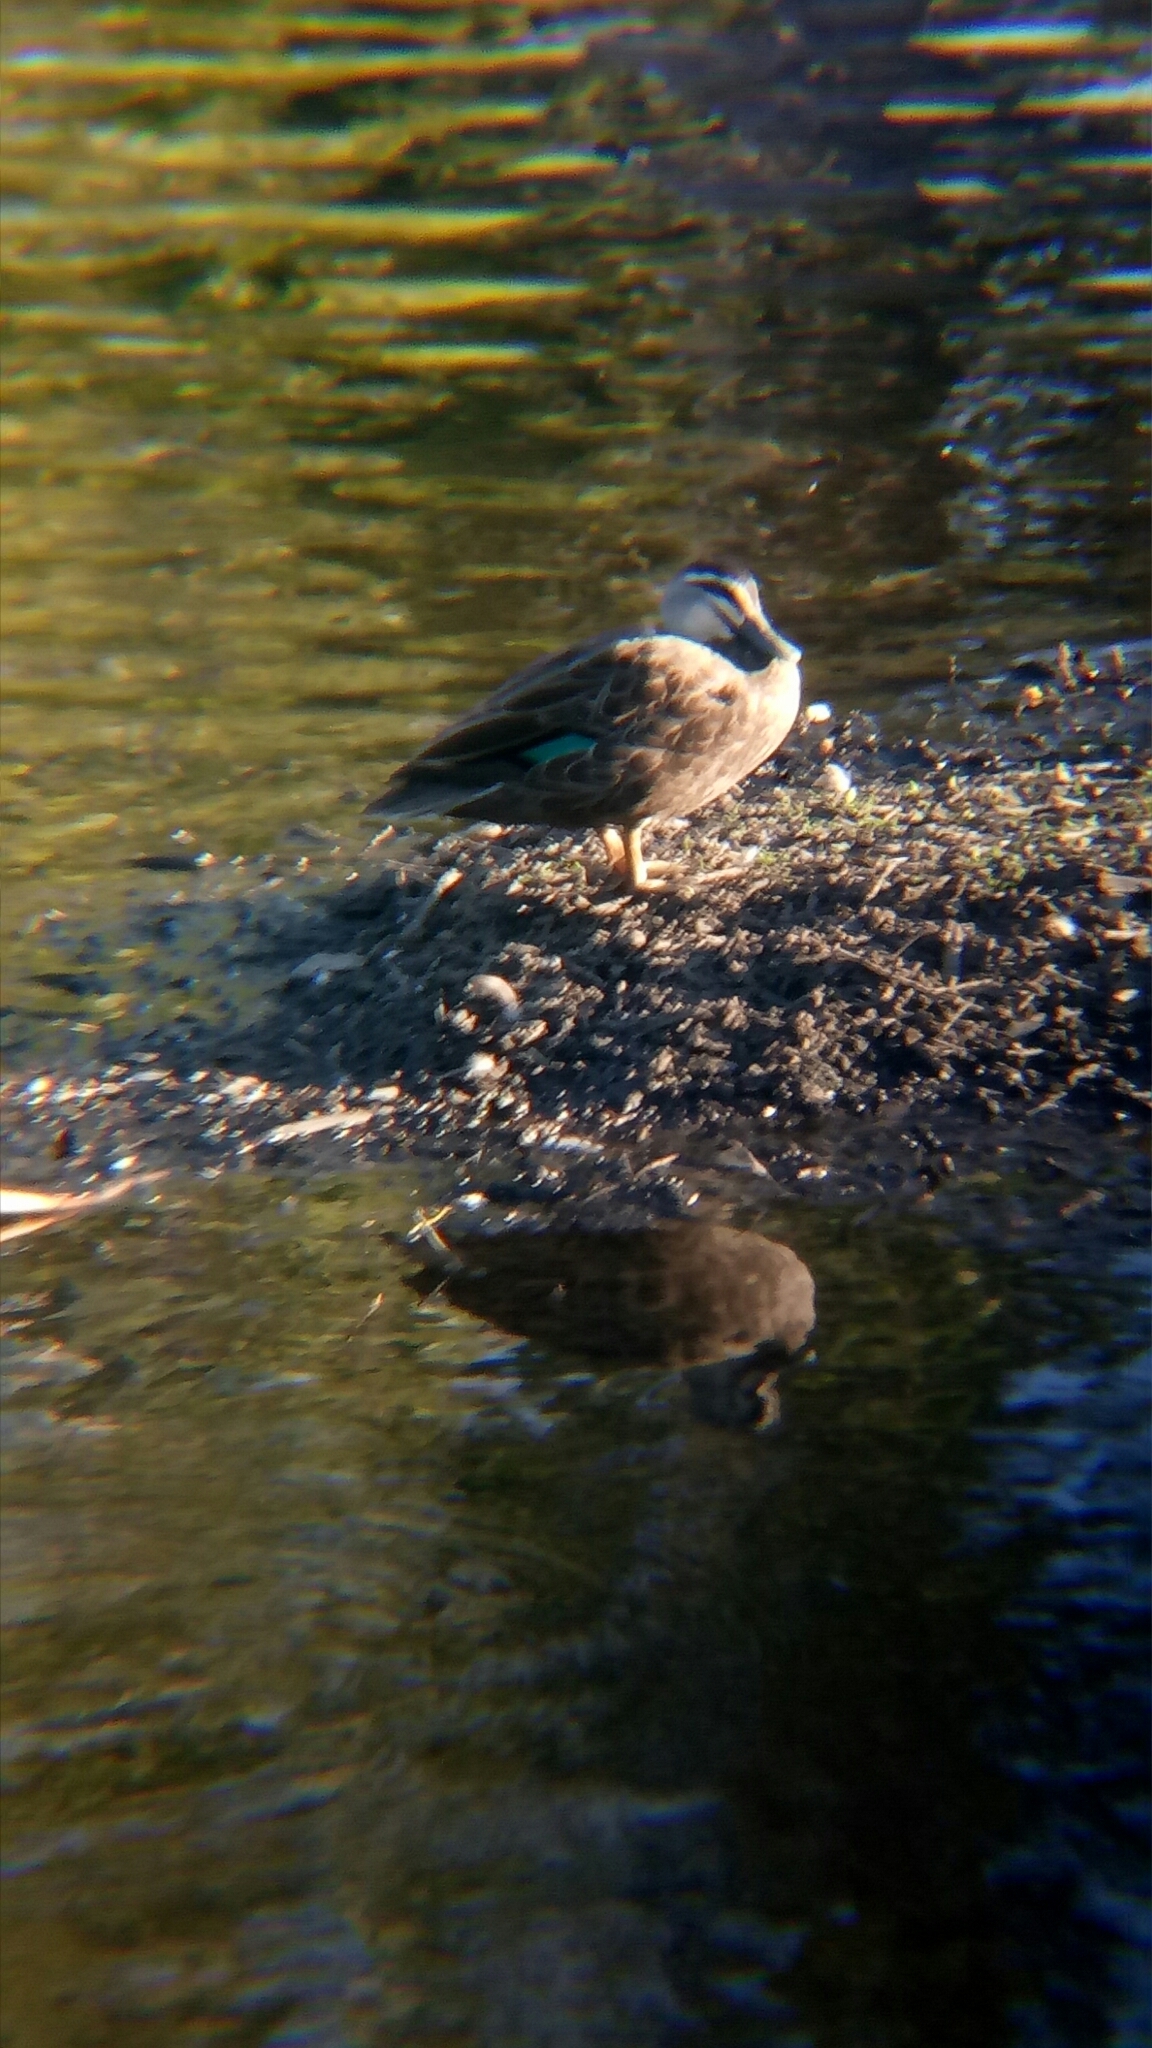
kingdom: Animalia
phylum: Chordata
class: Aves
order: Anseriformes
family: Anatidae
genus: Anas
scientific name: Anas superciliosa
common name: Pacific black duck
